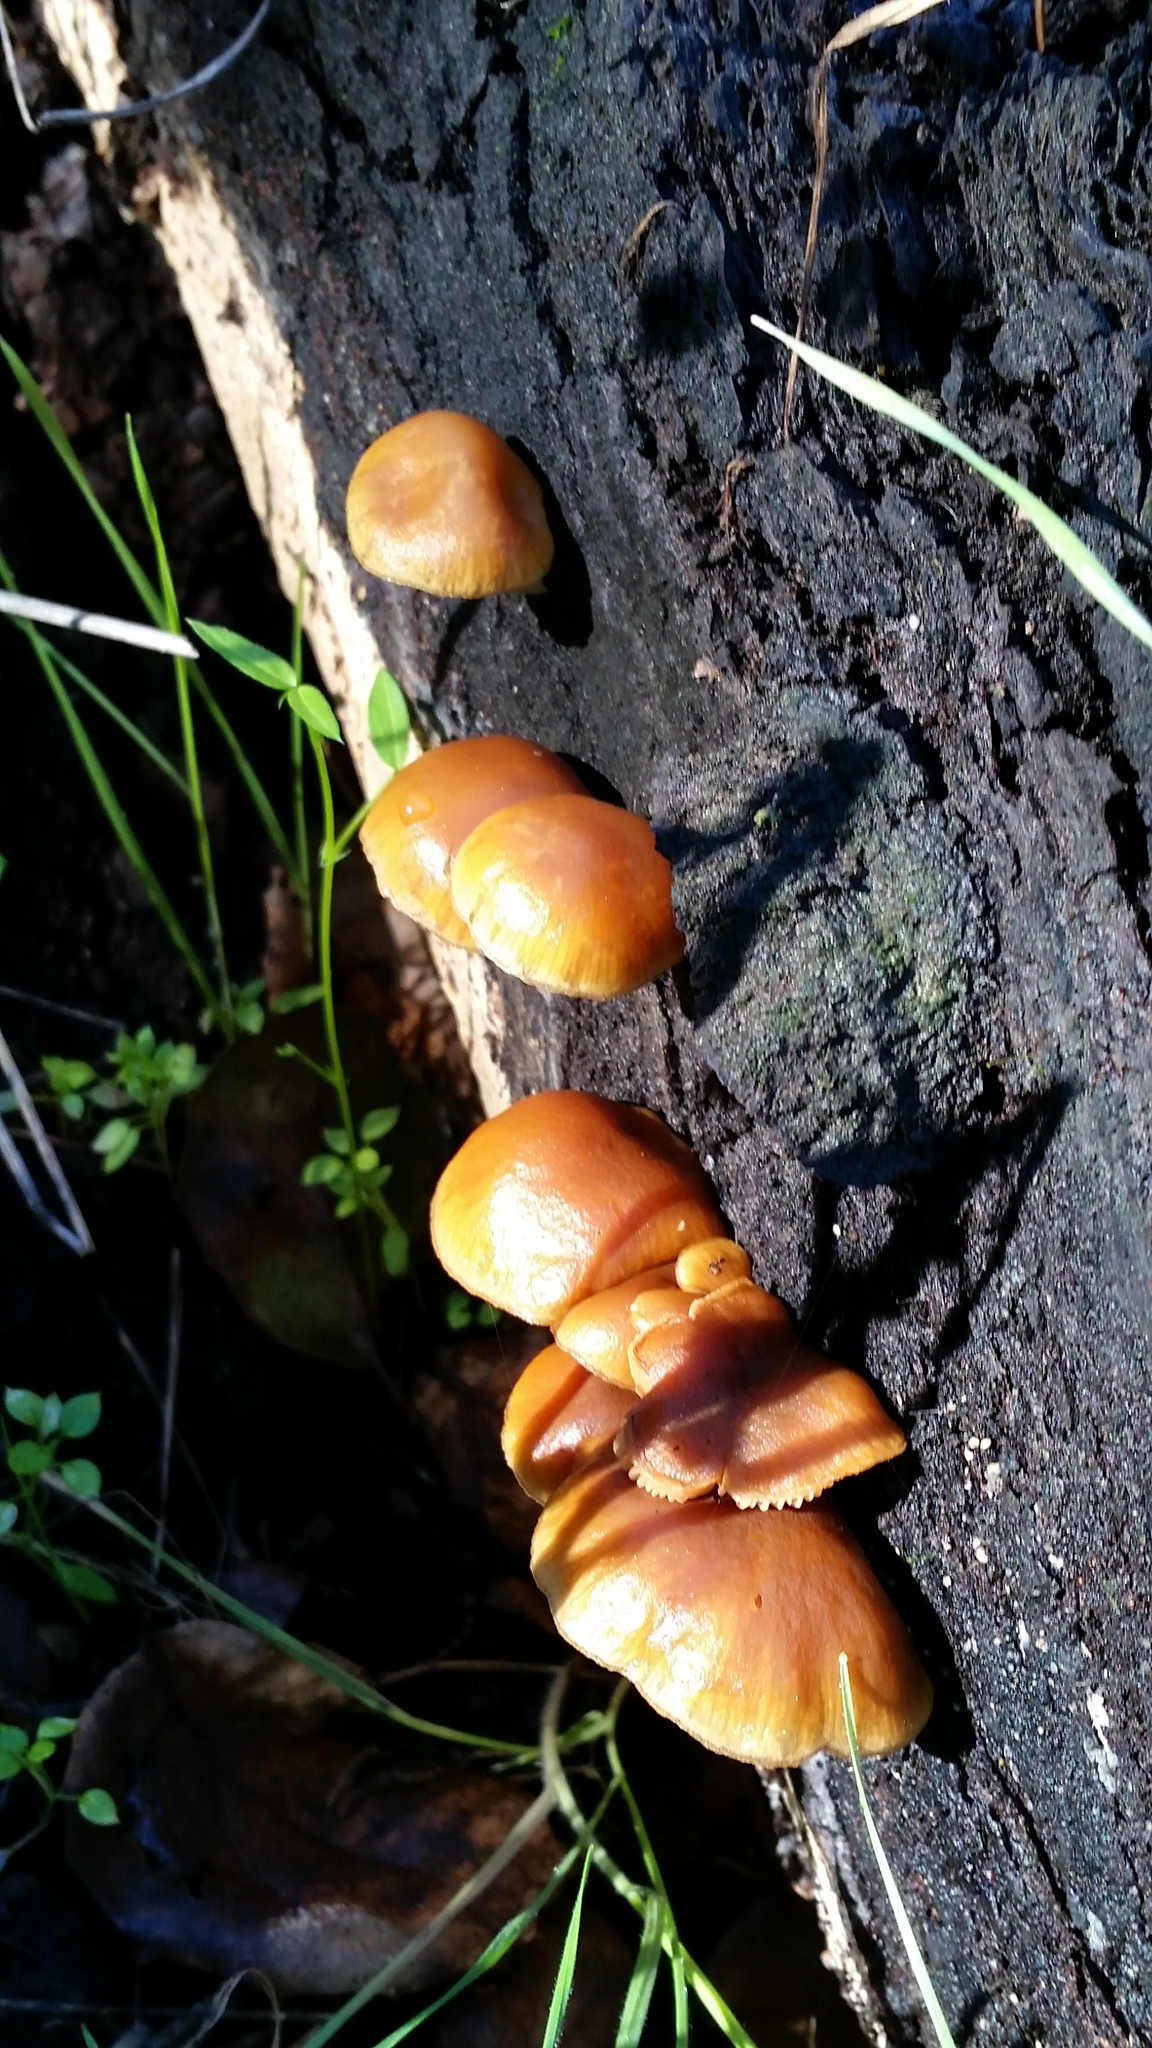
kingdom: Fungi
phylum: Basidiomycota
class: Agaricomycetes
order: Agaricales
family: Hymenogastraceae
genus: Galerina
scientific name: Galerina marginata
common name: Funeral bell
